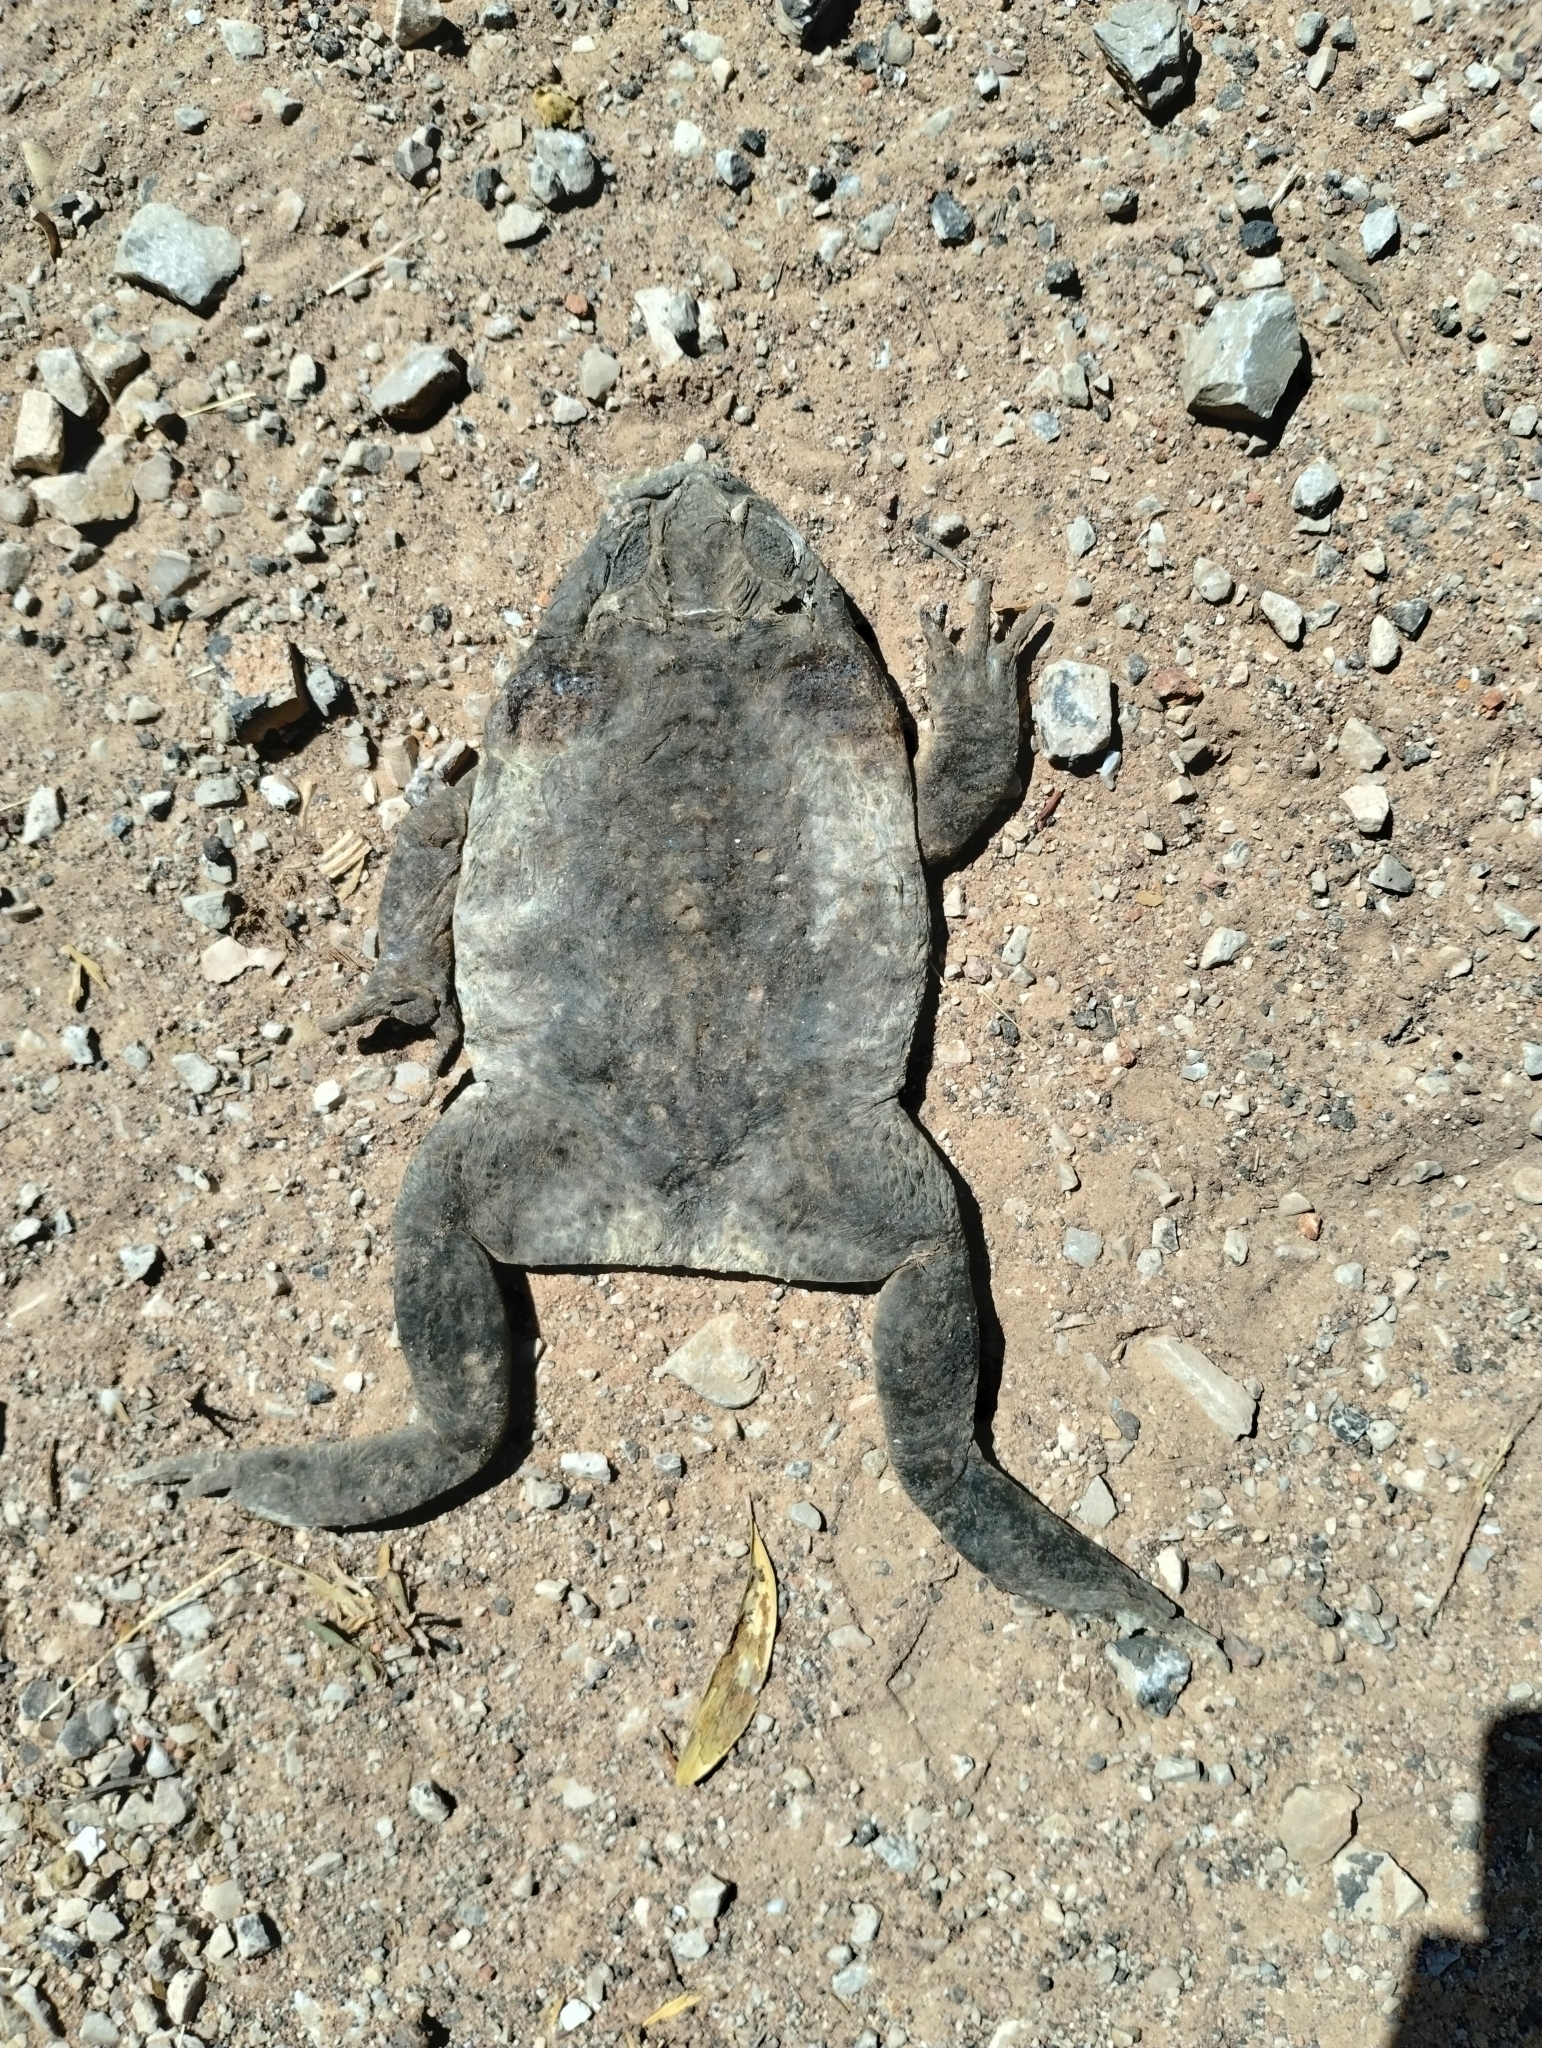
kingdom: Animalia
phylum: Chordata
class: Amphibia
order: Anura
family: Bufonidae
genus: Rhinella
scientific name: Rhinella marina
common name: Cane toad
